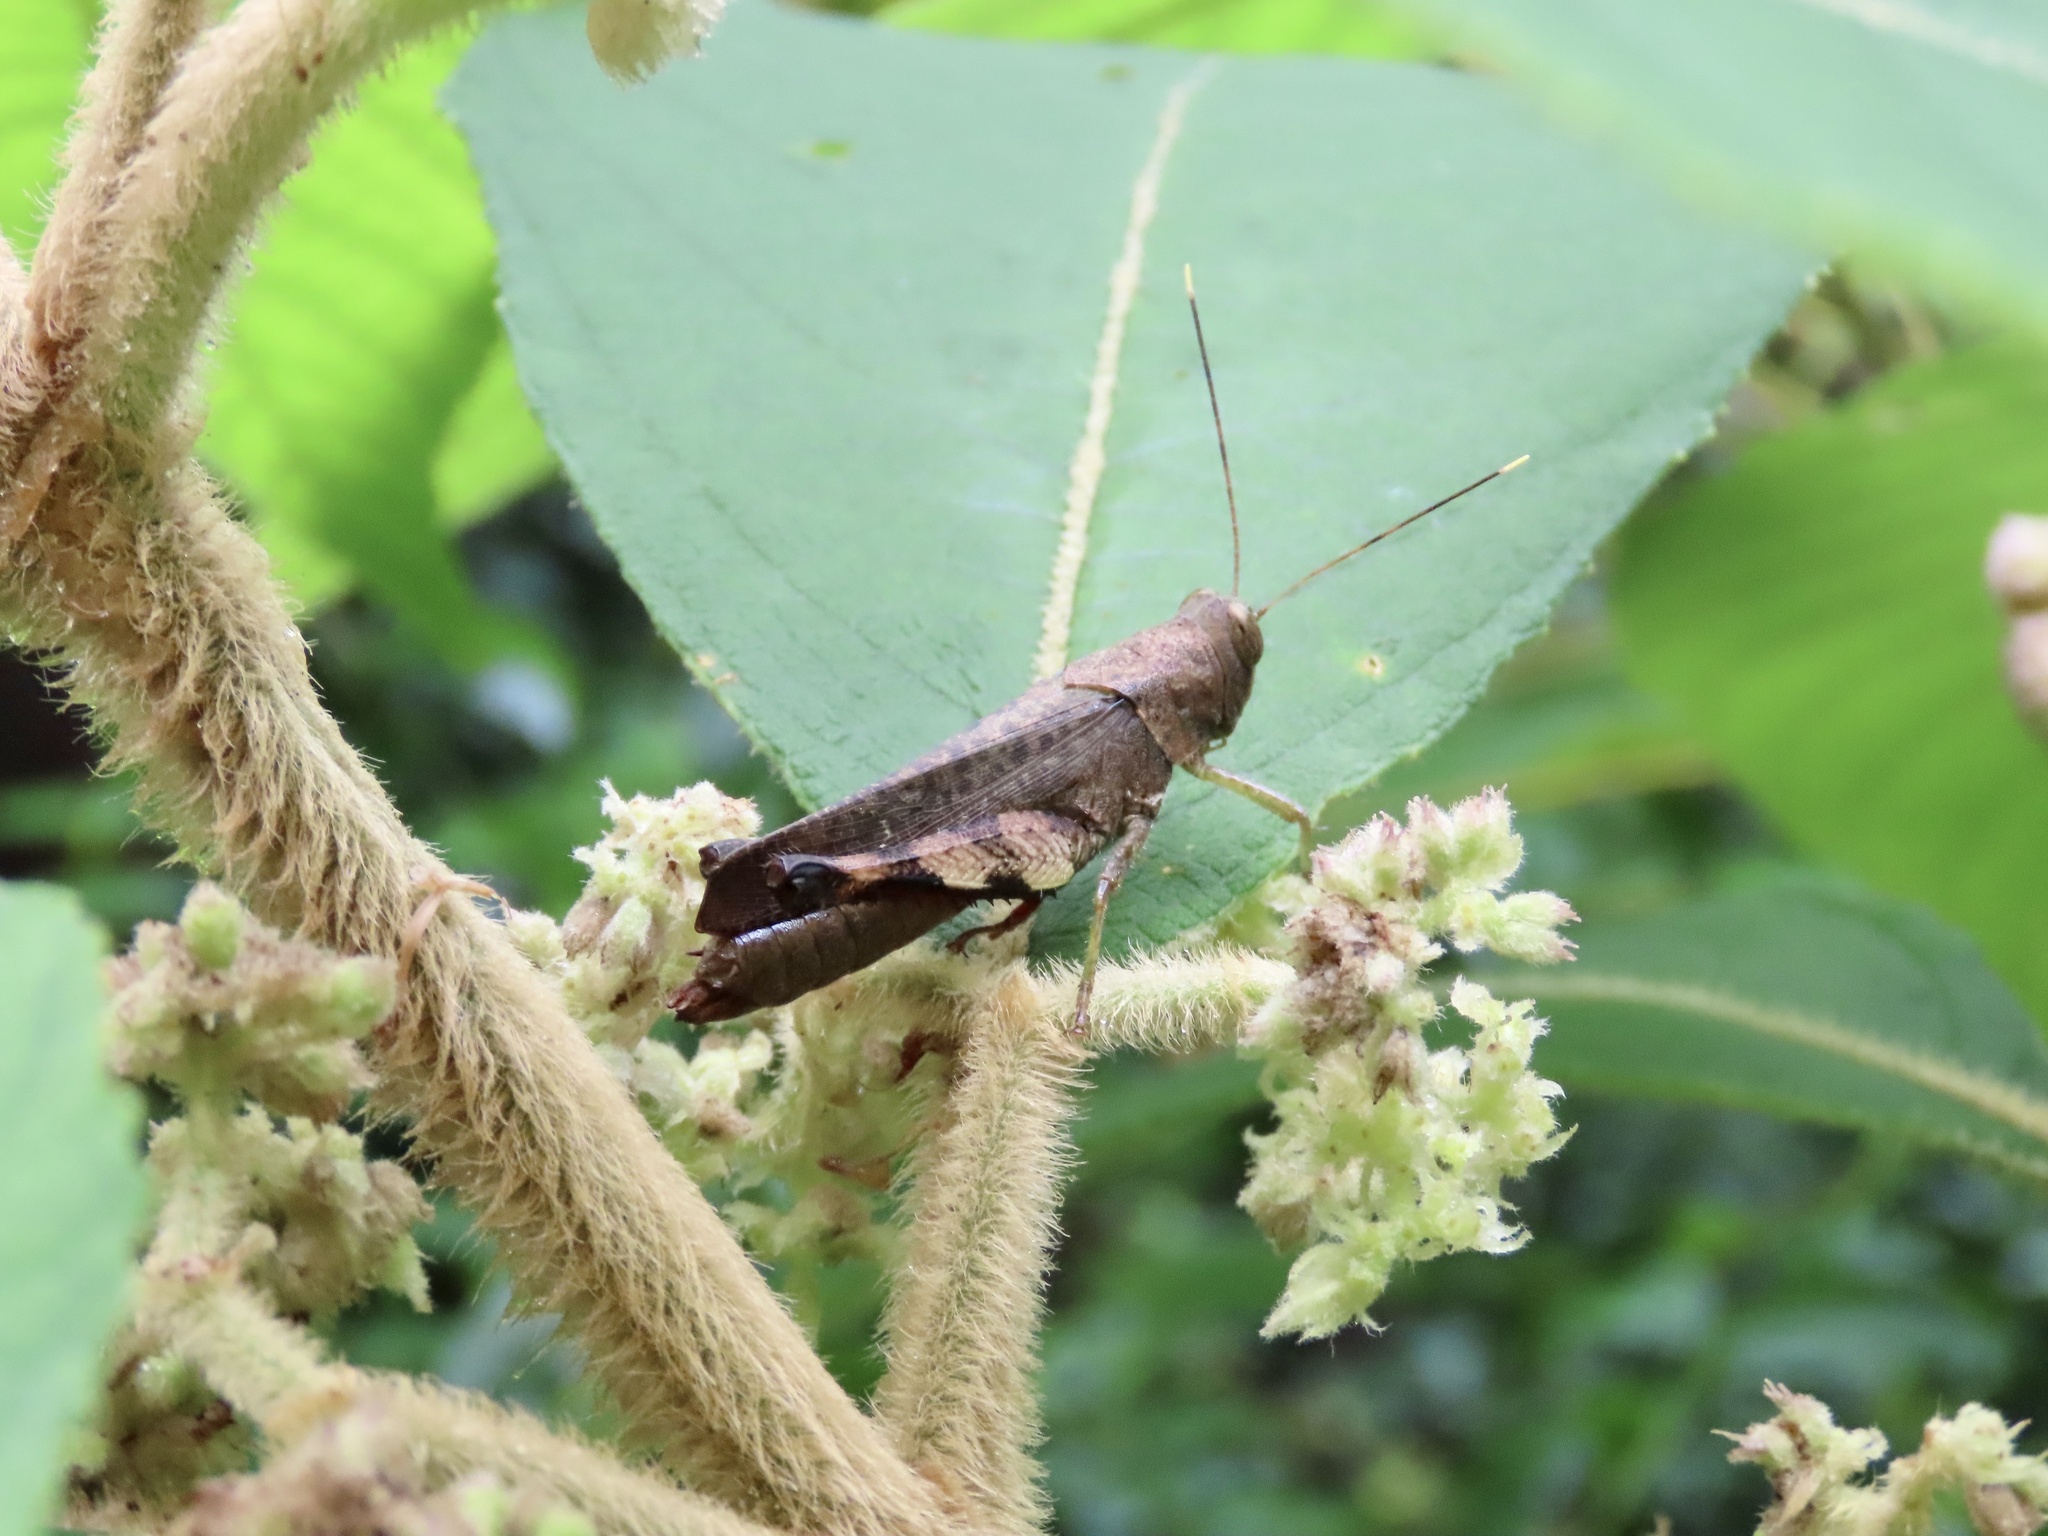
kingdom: Animalia
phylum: Arthropoda
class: Insecta
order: Orthoptera
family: Acrididae
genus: Apalacris
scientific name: Apalacris varicornis
